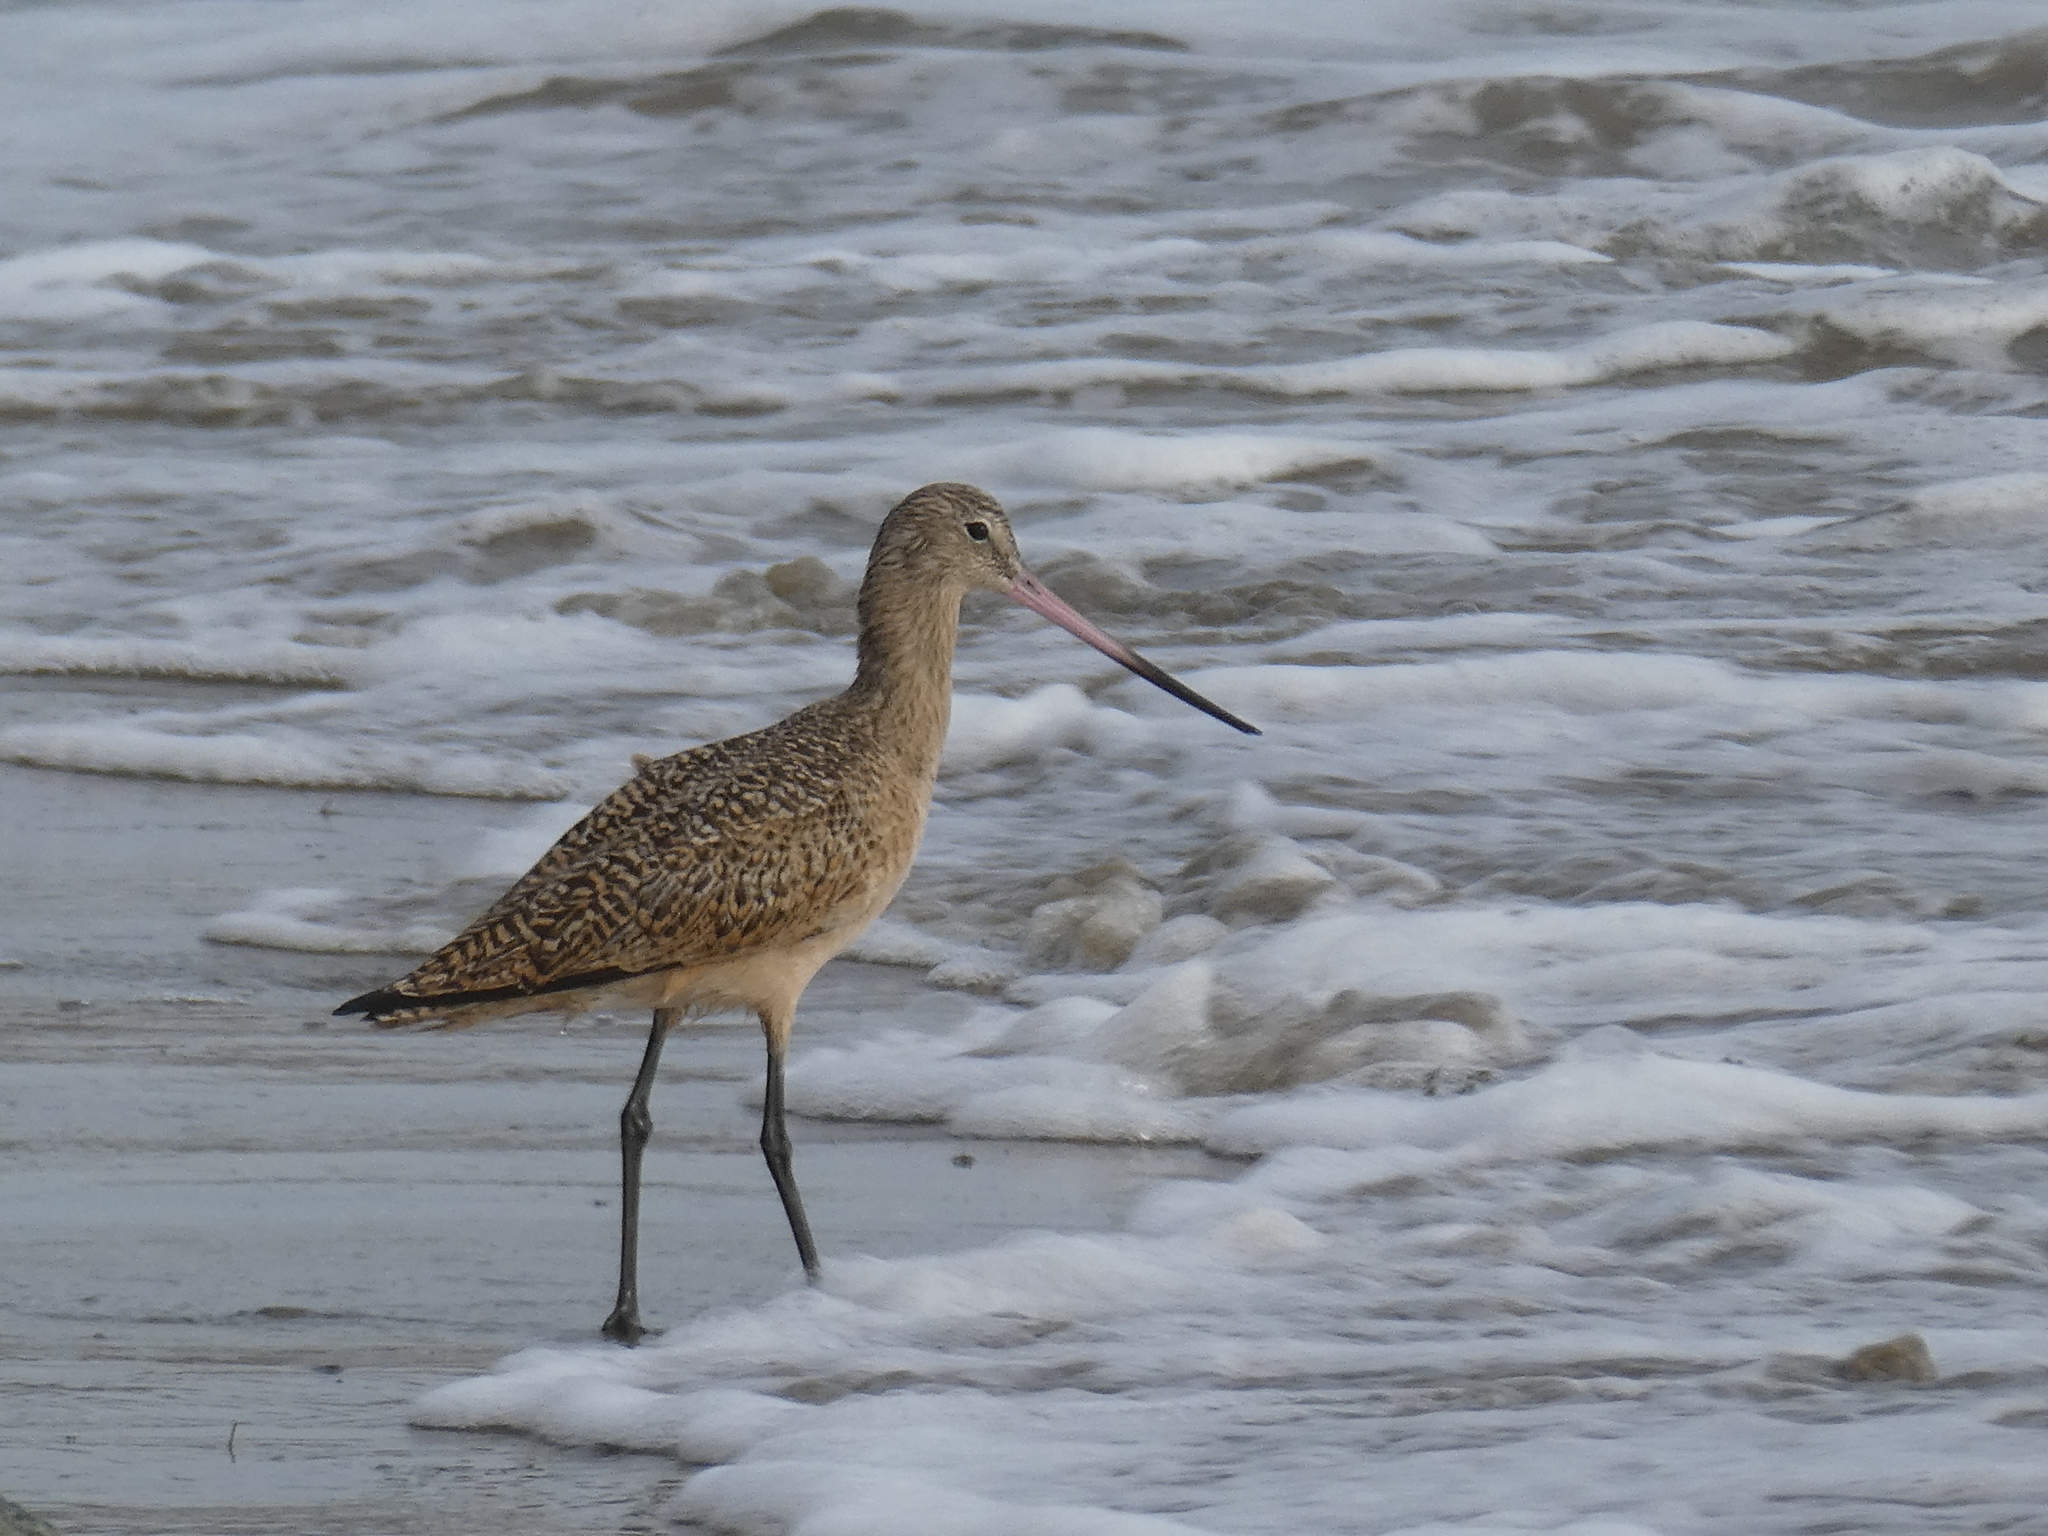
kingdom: Animalia
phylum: Chordata
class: Aves
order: Charadriiformes
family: Scolopacidae
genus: Limosa
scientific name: Limosa fedoa
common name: Marbled godwit
